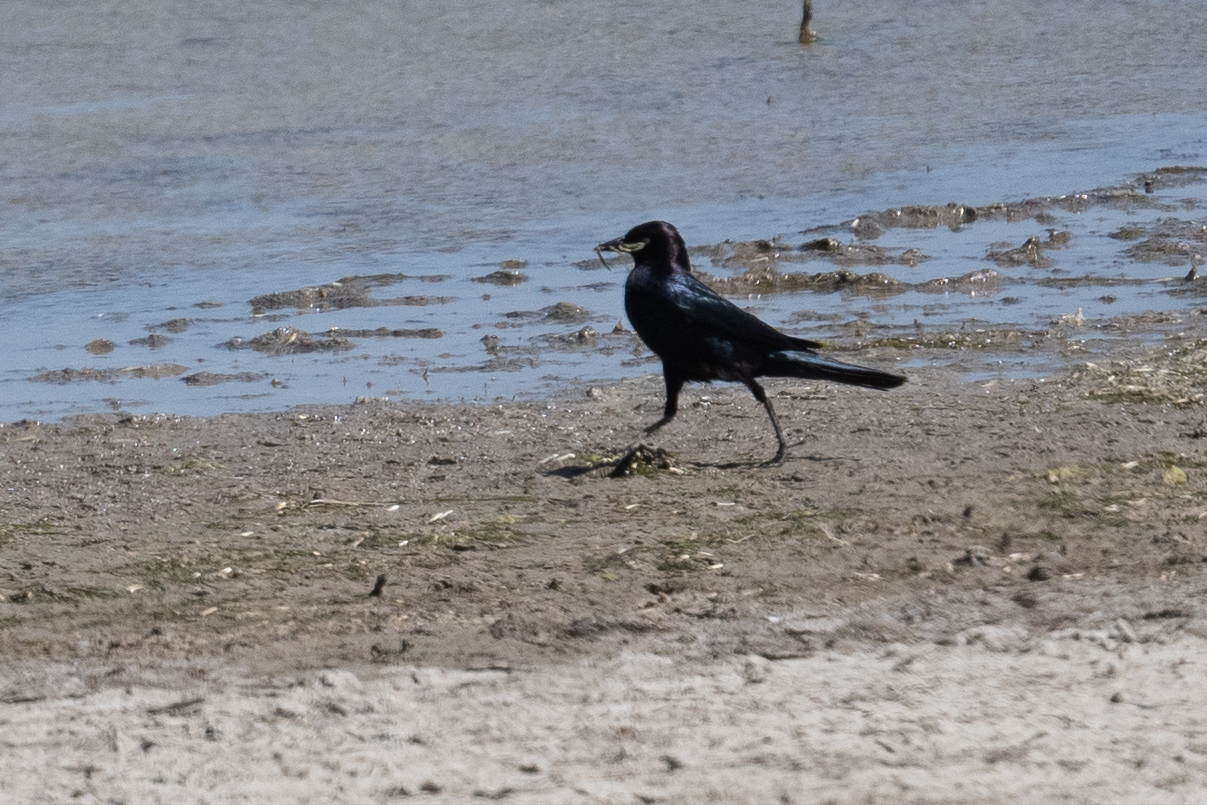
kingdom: Animalia
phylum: Chordata
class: Aves
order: Passeriformes
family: Icteridae
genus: Euphagus
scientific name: Euphagus cyanocephalus
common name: Brewer's blackbird
